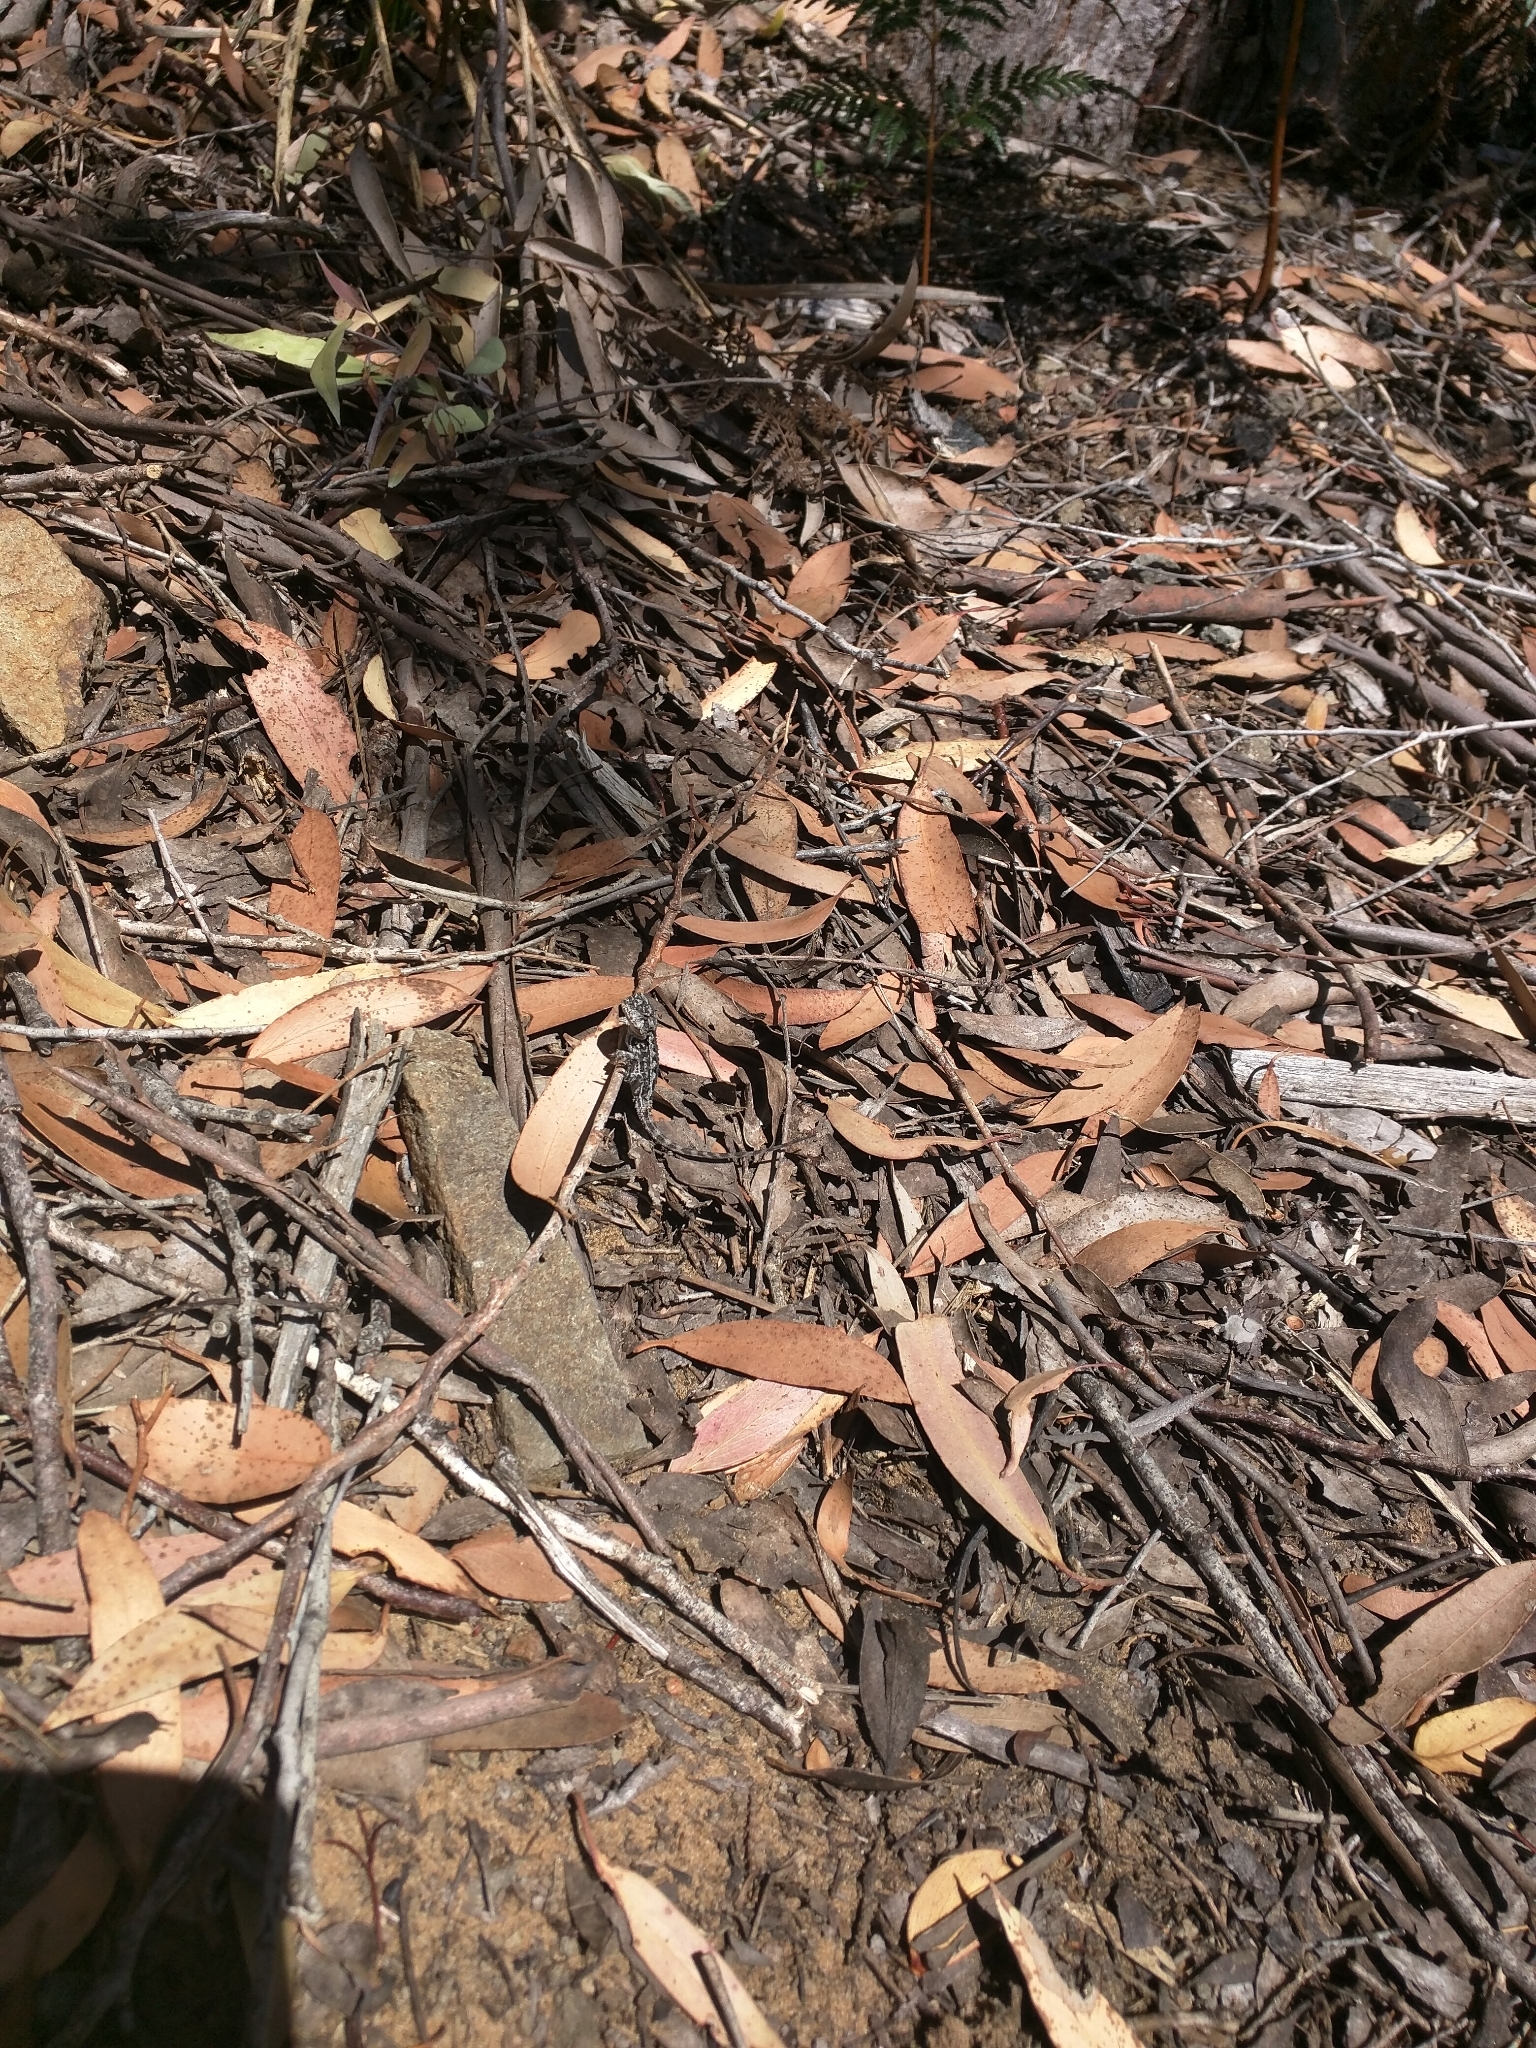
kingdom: Animalia
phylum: Chordata
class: Squamata
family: Agamidae
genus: Rankinia
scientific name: Rankinia diemensis
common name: Mountain dragon
